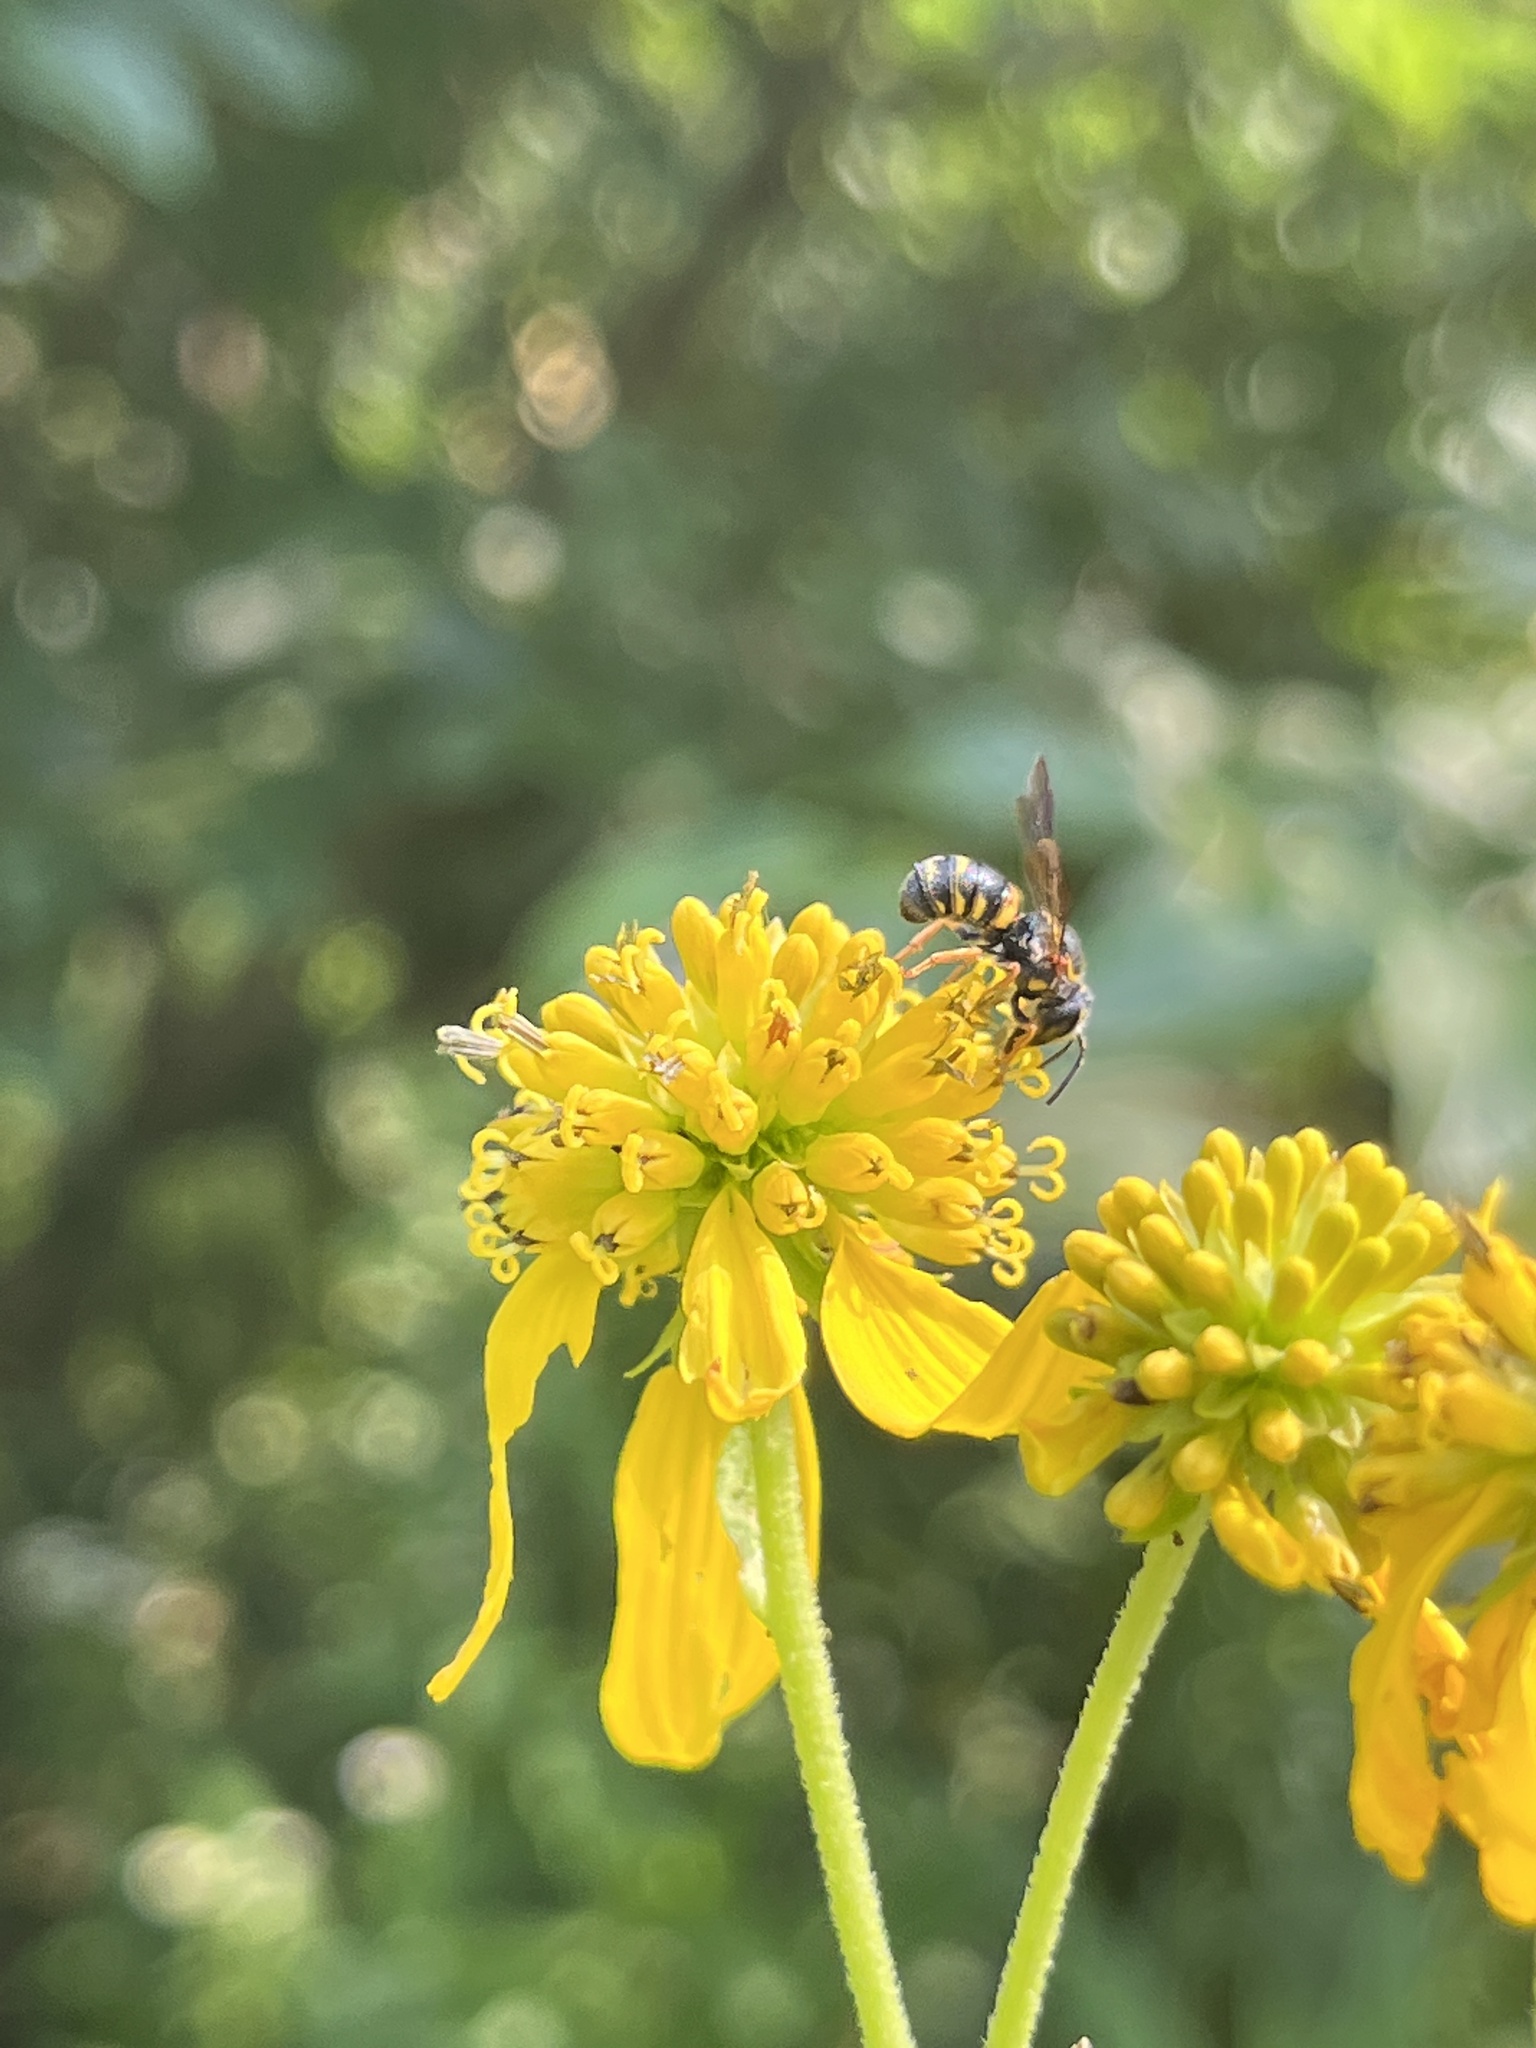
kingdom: Animalia
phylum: Arthropoda
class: Insecta
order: Hymenoptera
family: Megachilidae
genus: Stelis
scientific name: Stelis louisae
